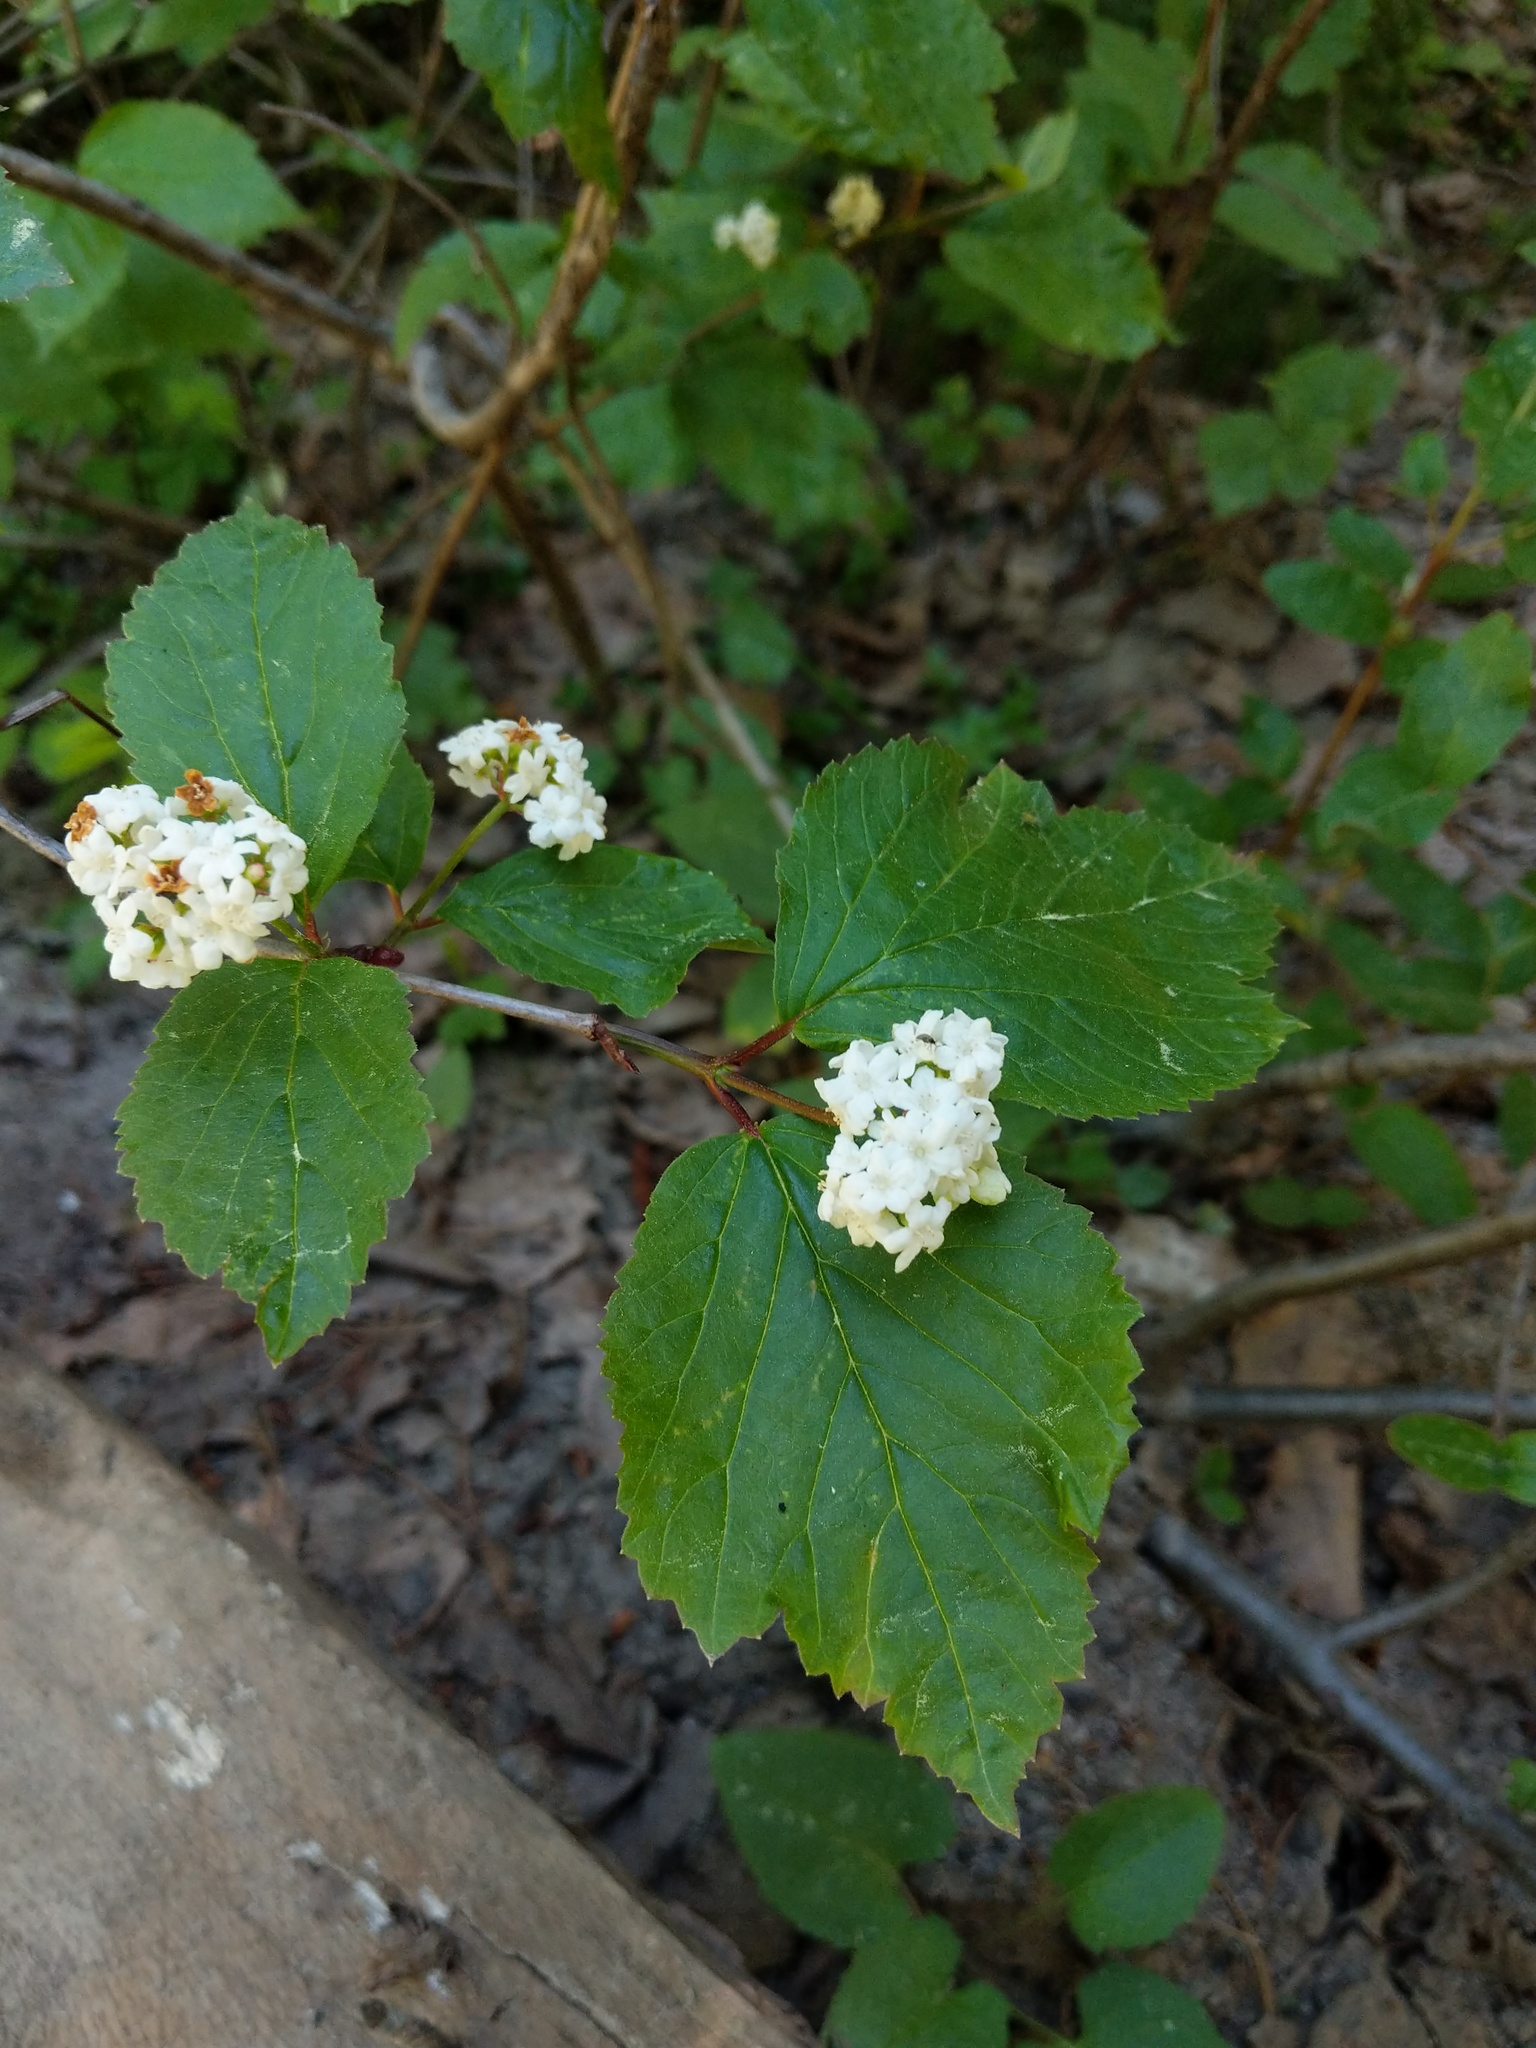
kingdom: Plantae
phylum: Tracheophyta
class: Magnoliopsida
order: Dipsacales
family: Viburnaceae
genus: Viburnum
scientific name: Viburnum edule
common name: Mooseberry
